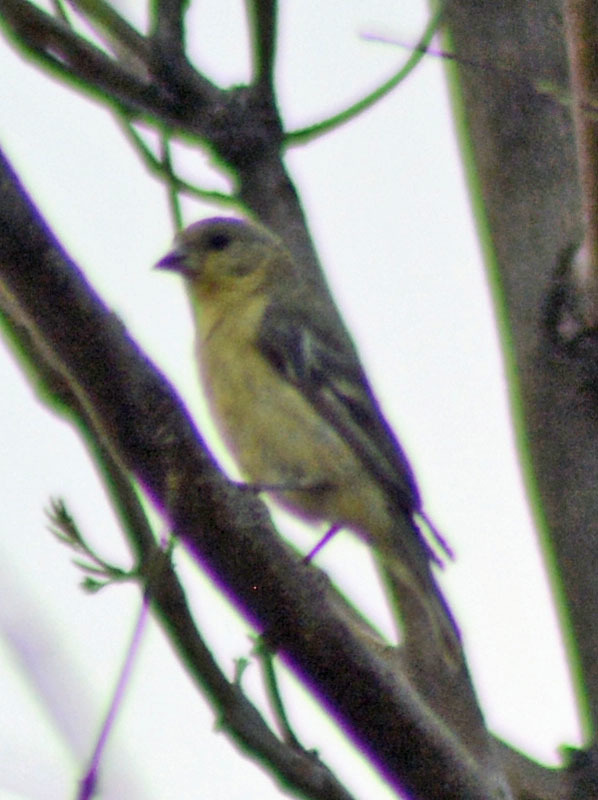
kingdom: Animalia
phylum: Chordata
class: Aves
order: Passeriformes
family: Fringillidae
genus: Spinus
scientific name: Spinus psaltria
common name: Lesser goldfinch
